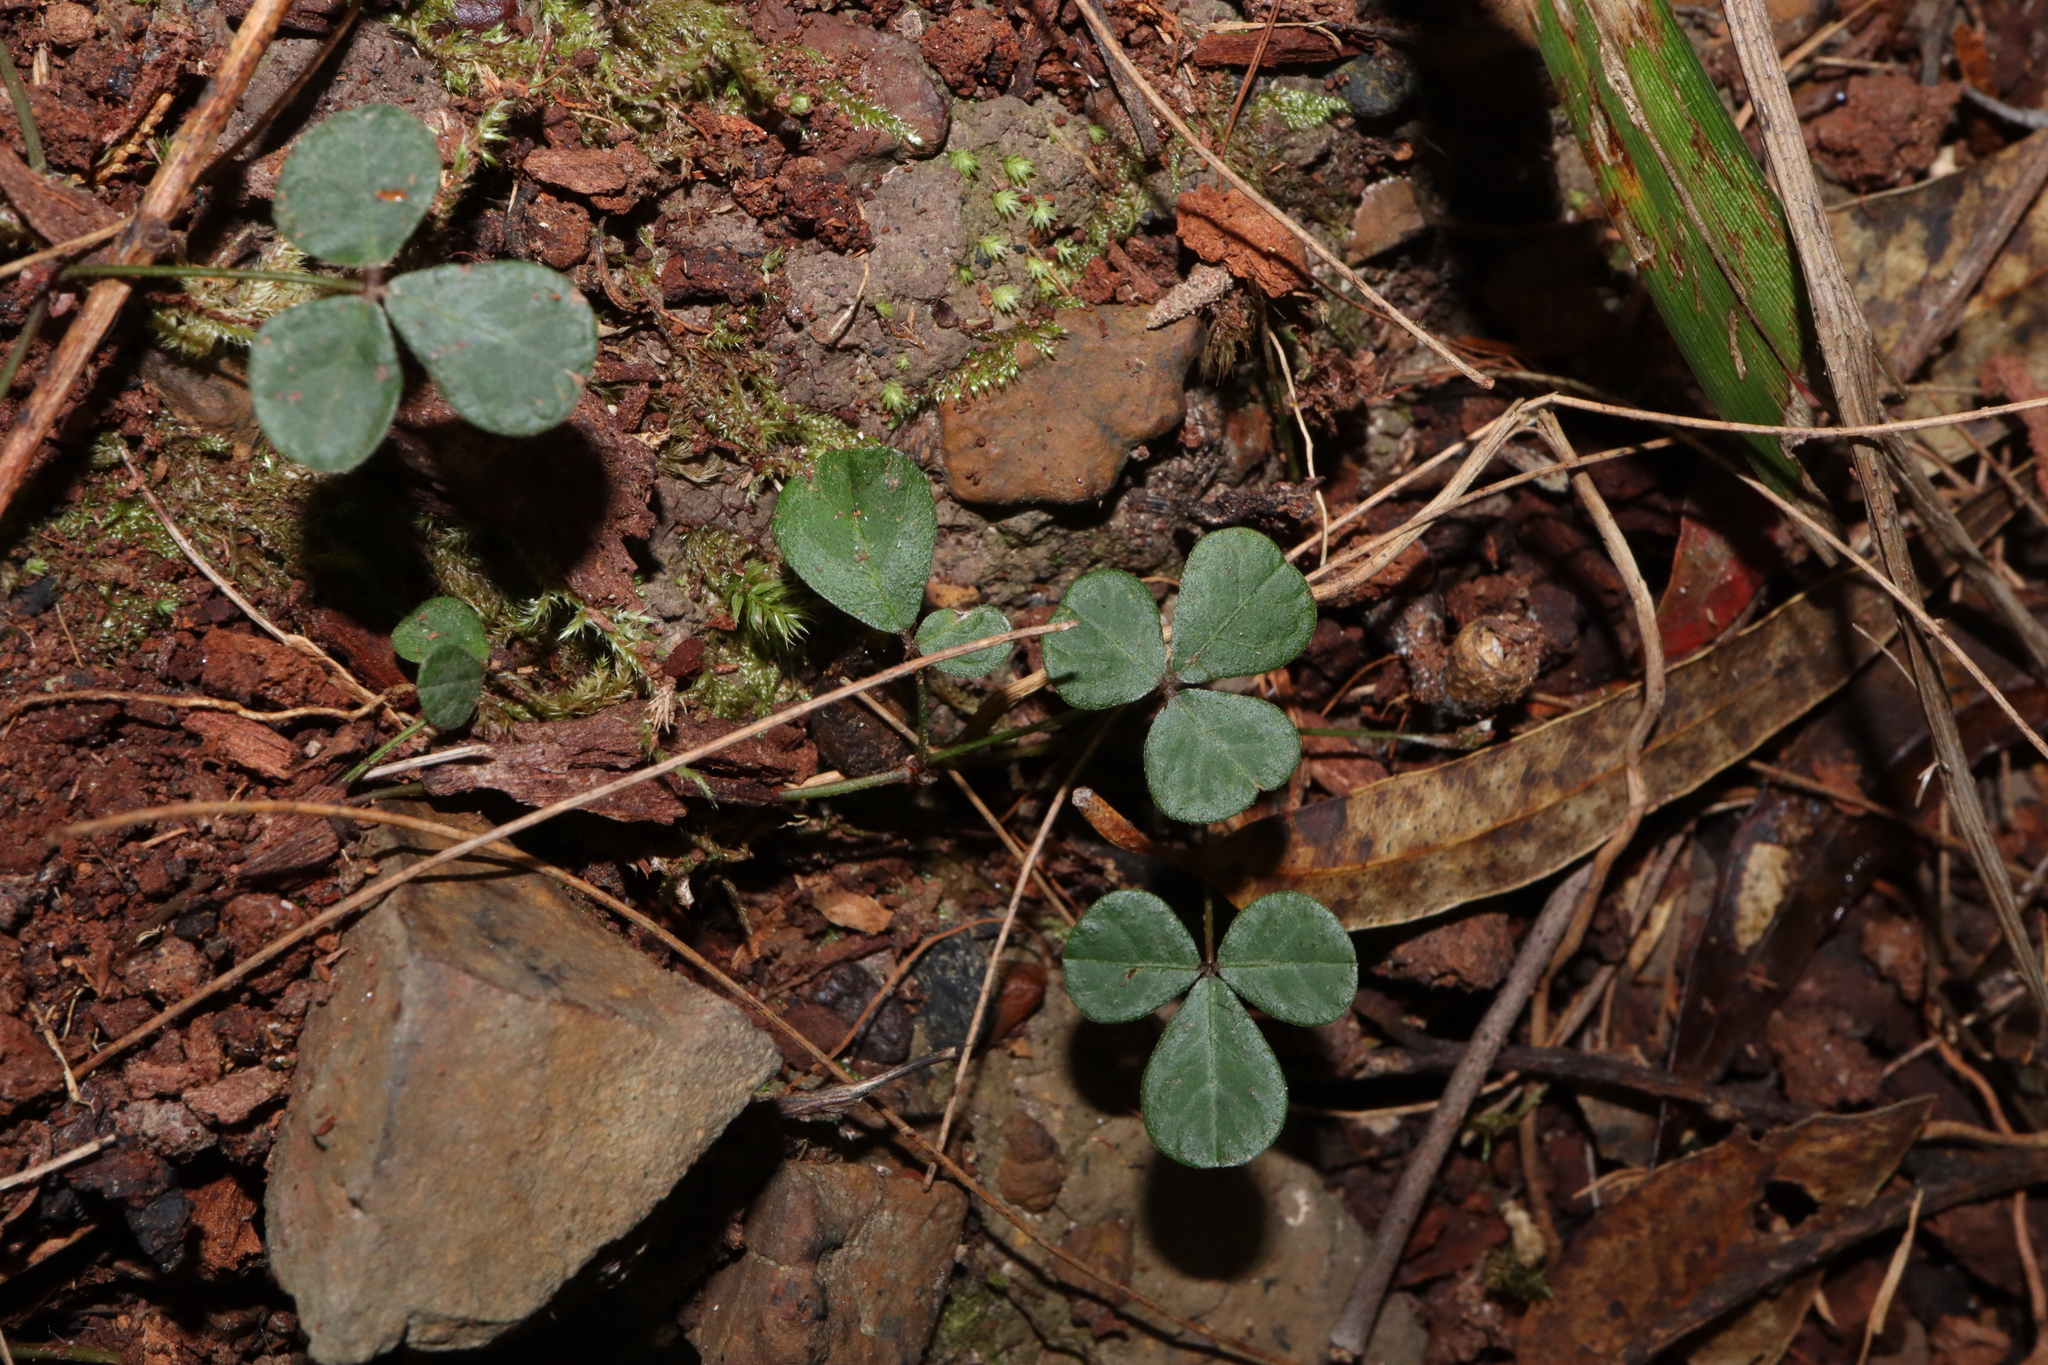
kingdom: Plantae
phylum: Tracheophyta
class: Magnoliopsida
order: Fabales
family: Fabaceae
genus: Pullenia
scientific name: Pullenia gunnii
